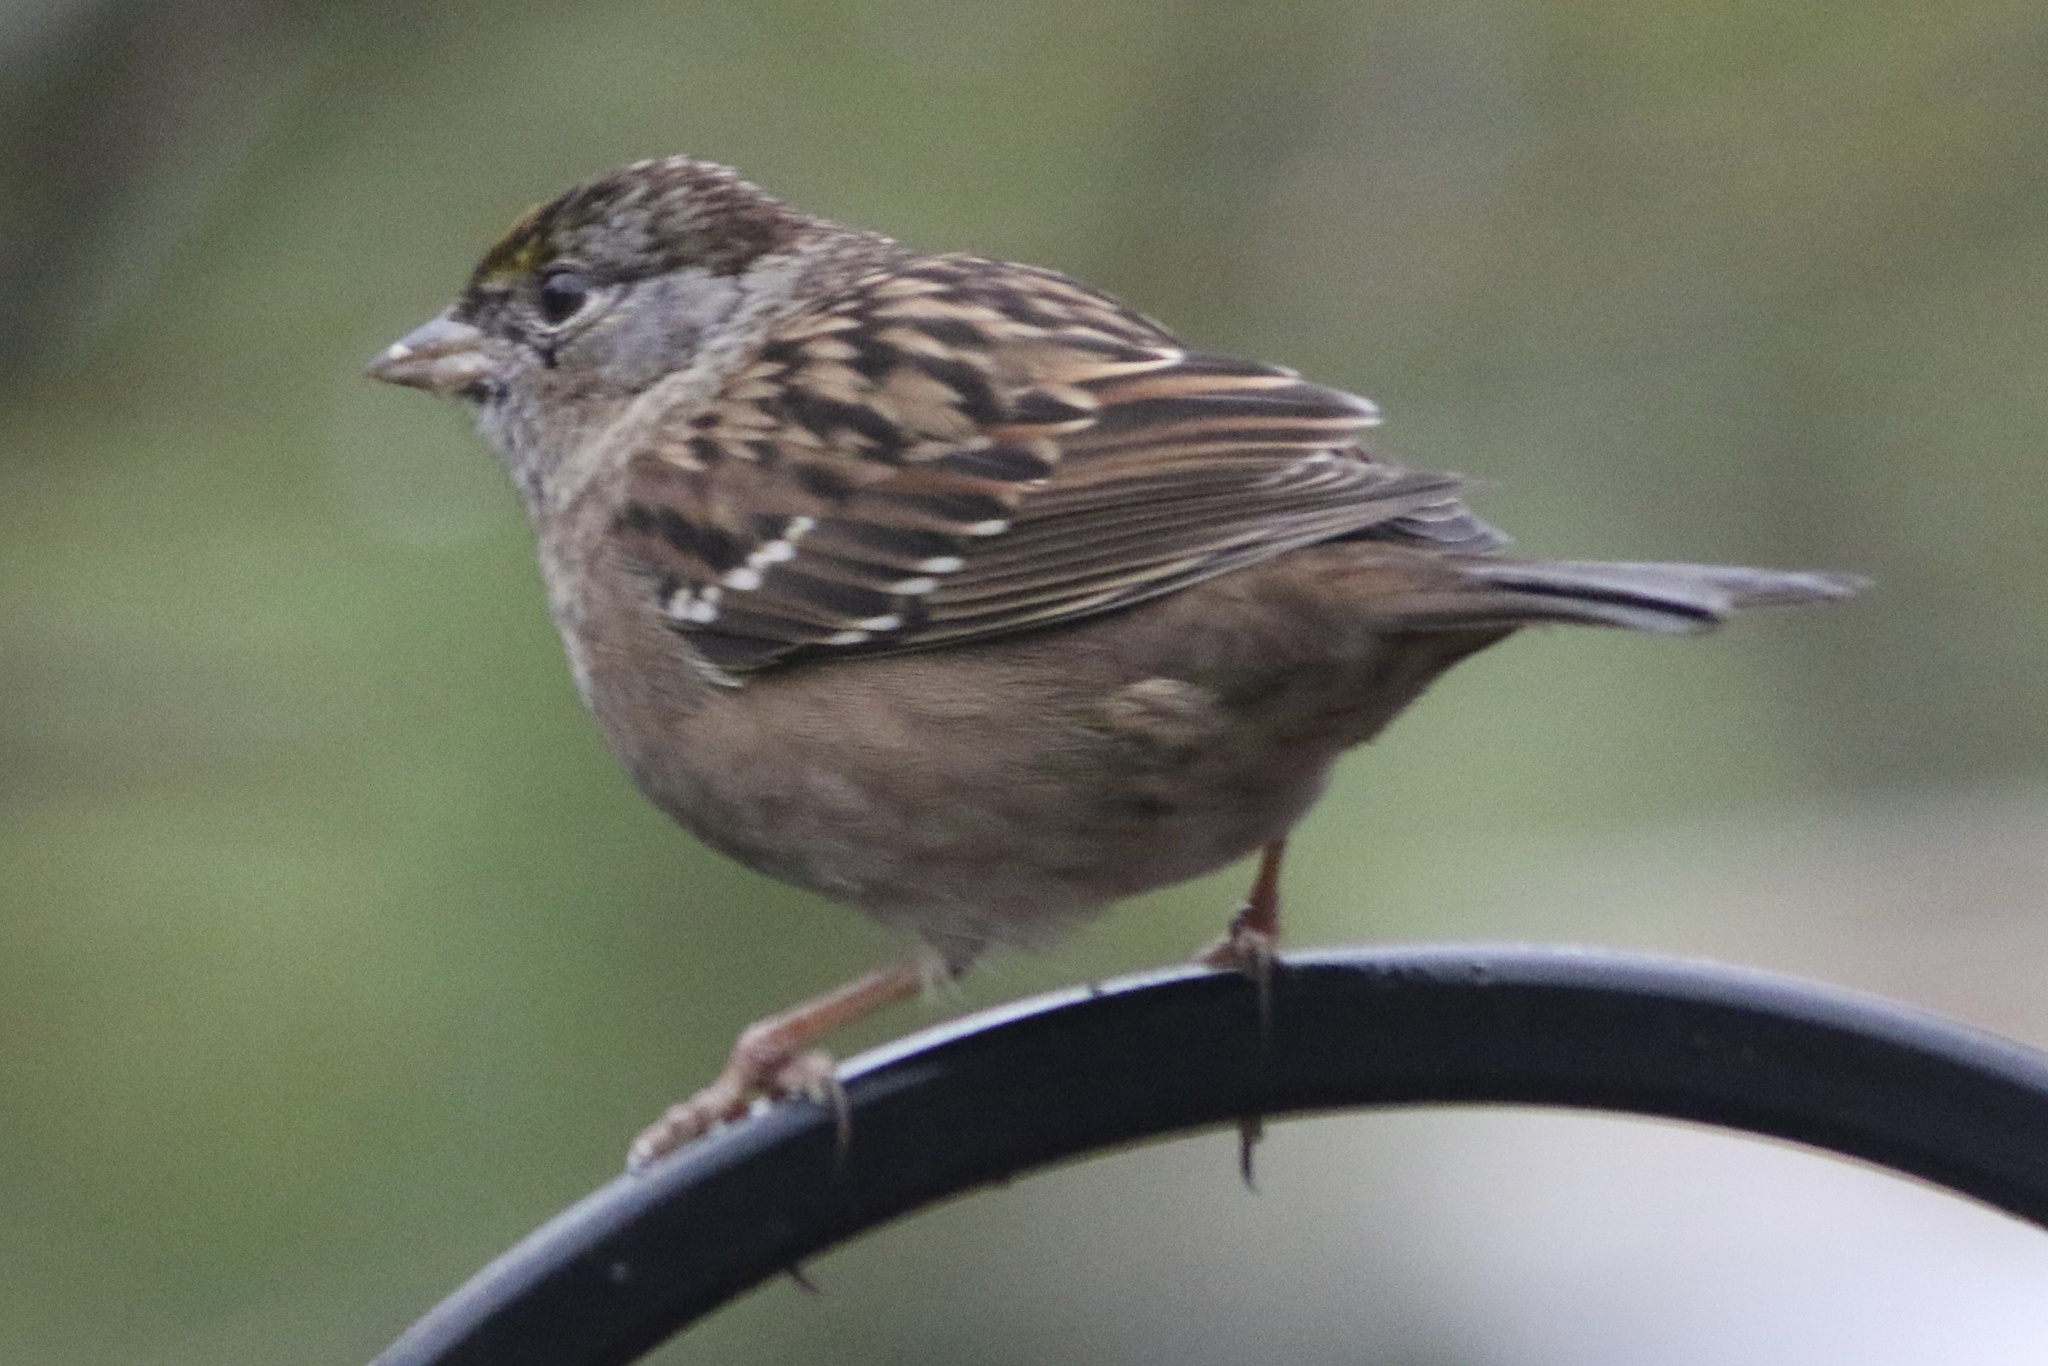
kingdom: Animalia
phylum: Chordata
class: Aves
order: Passeriformes
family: Passerellidae
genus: Zonotrichia
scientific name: Zonotrichia atricapilla
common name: Golden-crowned sparrow
